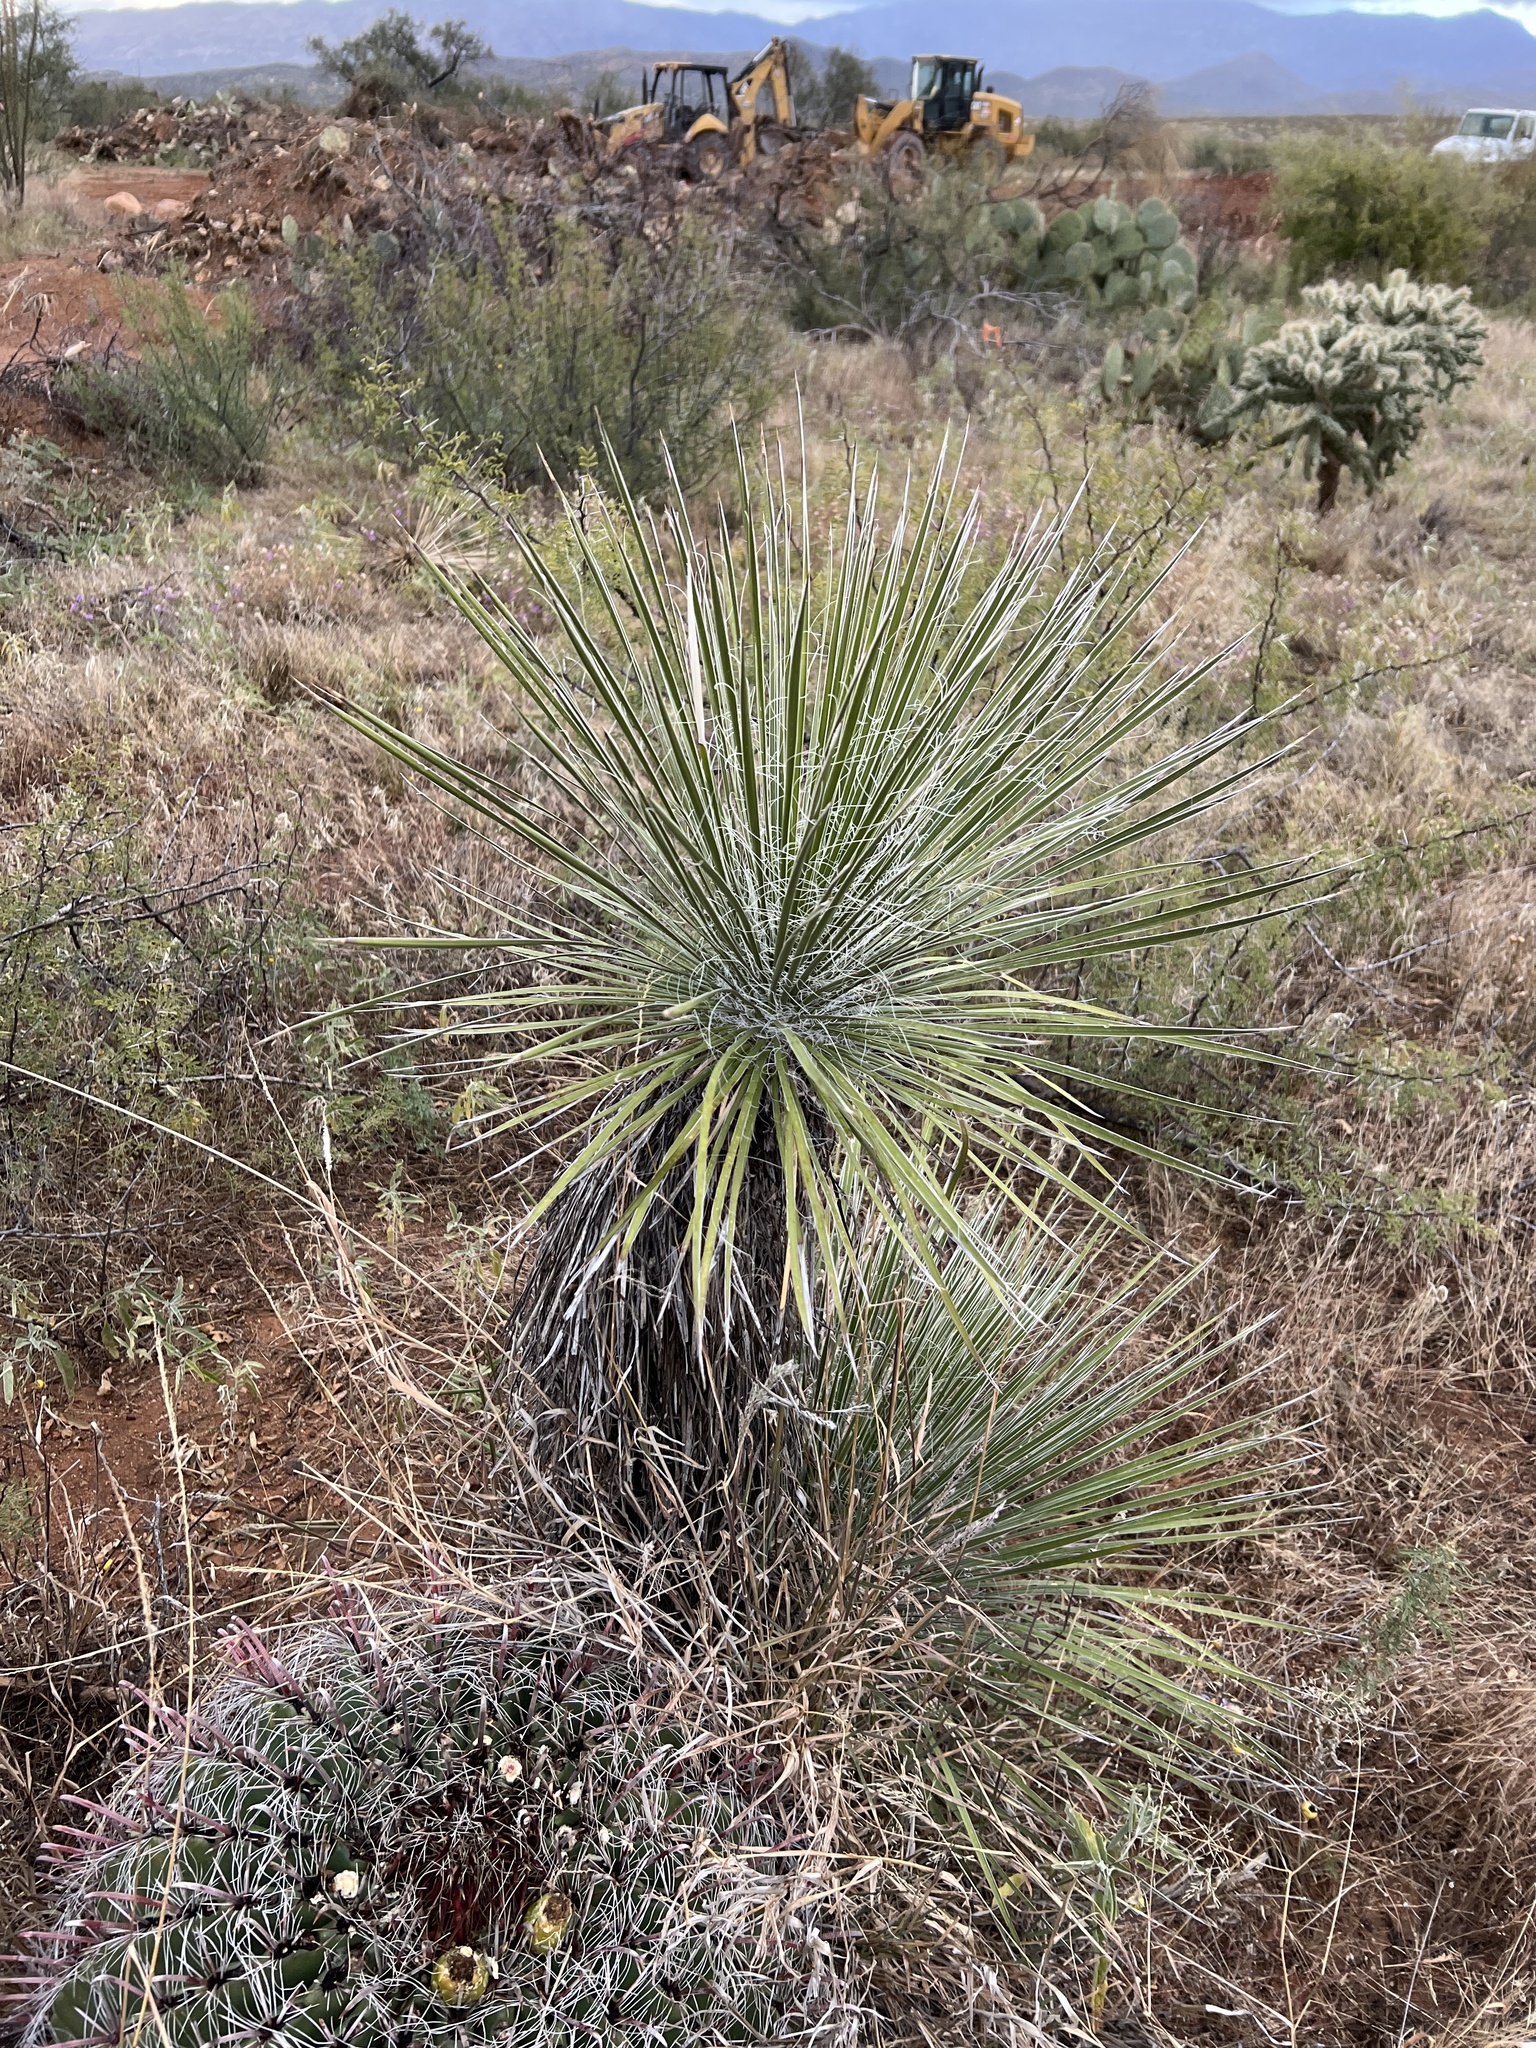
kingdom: Plantae
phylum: Tracheophyta
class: Liliopsida
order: Asparagales
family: Asparagaceae
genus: Yucca
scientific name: Yucca elata
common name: Palmella
